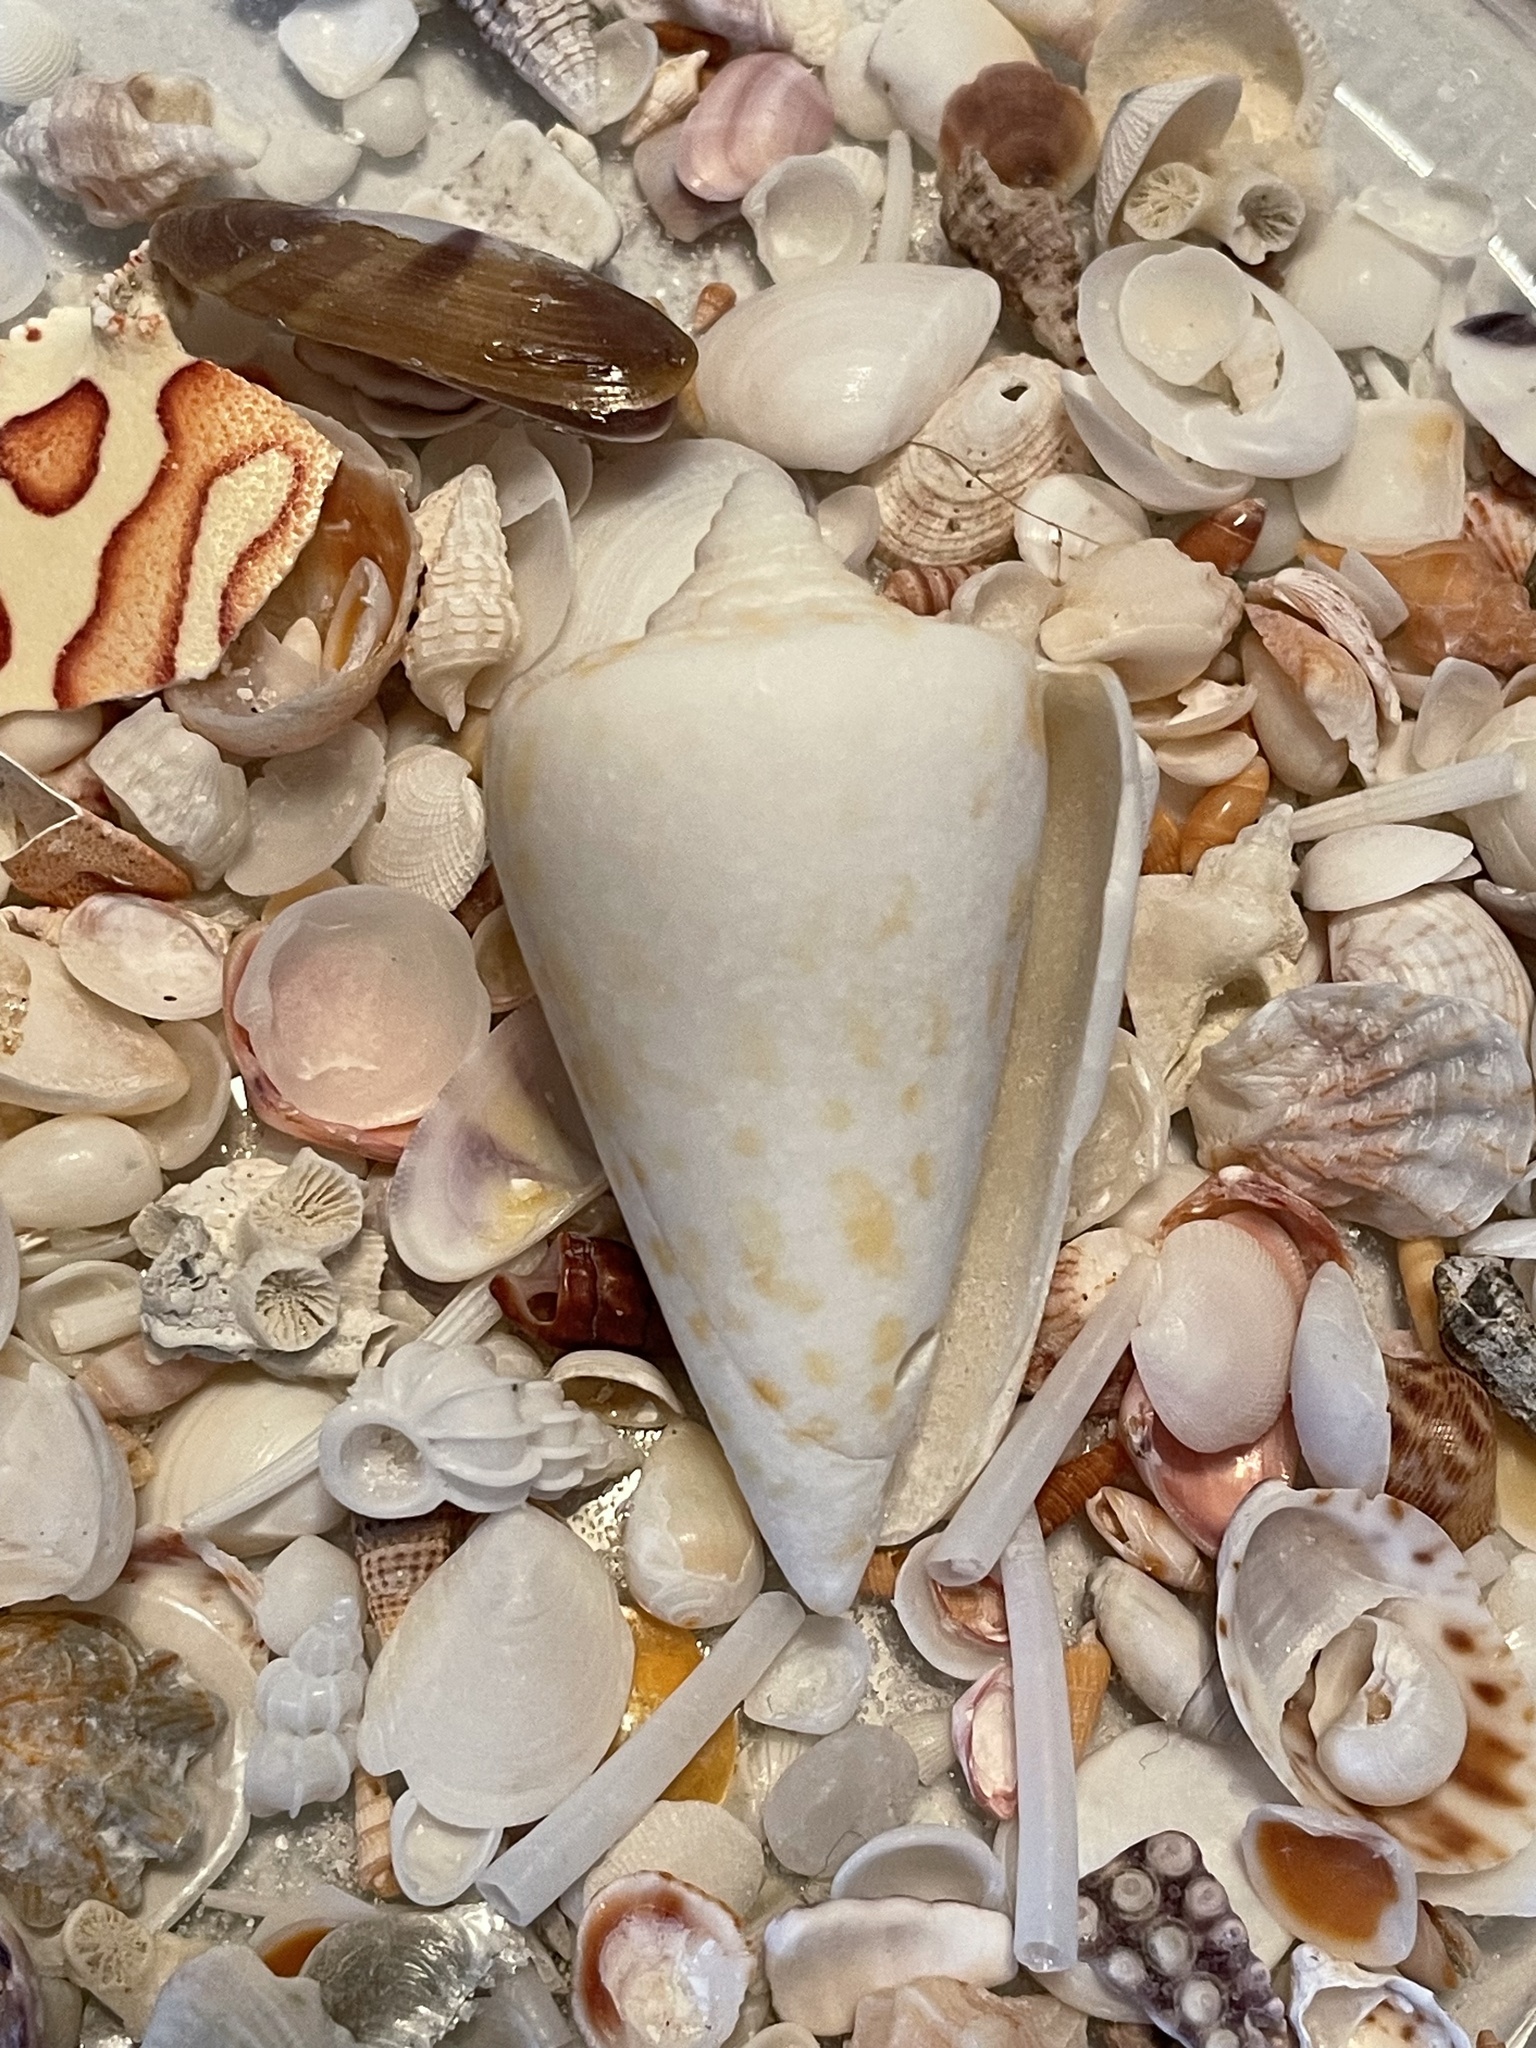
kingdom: Animalia
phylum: Mollusca
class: Gastropoda
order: Neogastropoda
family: Conidae
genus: Conus
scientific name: Conus spurius
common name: Alphabet cone
